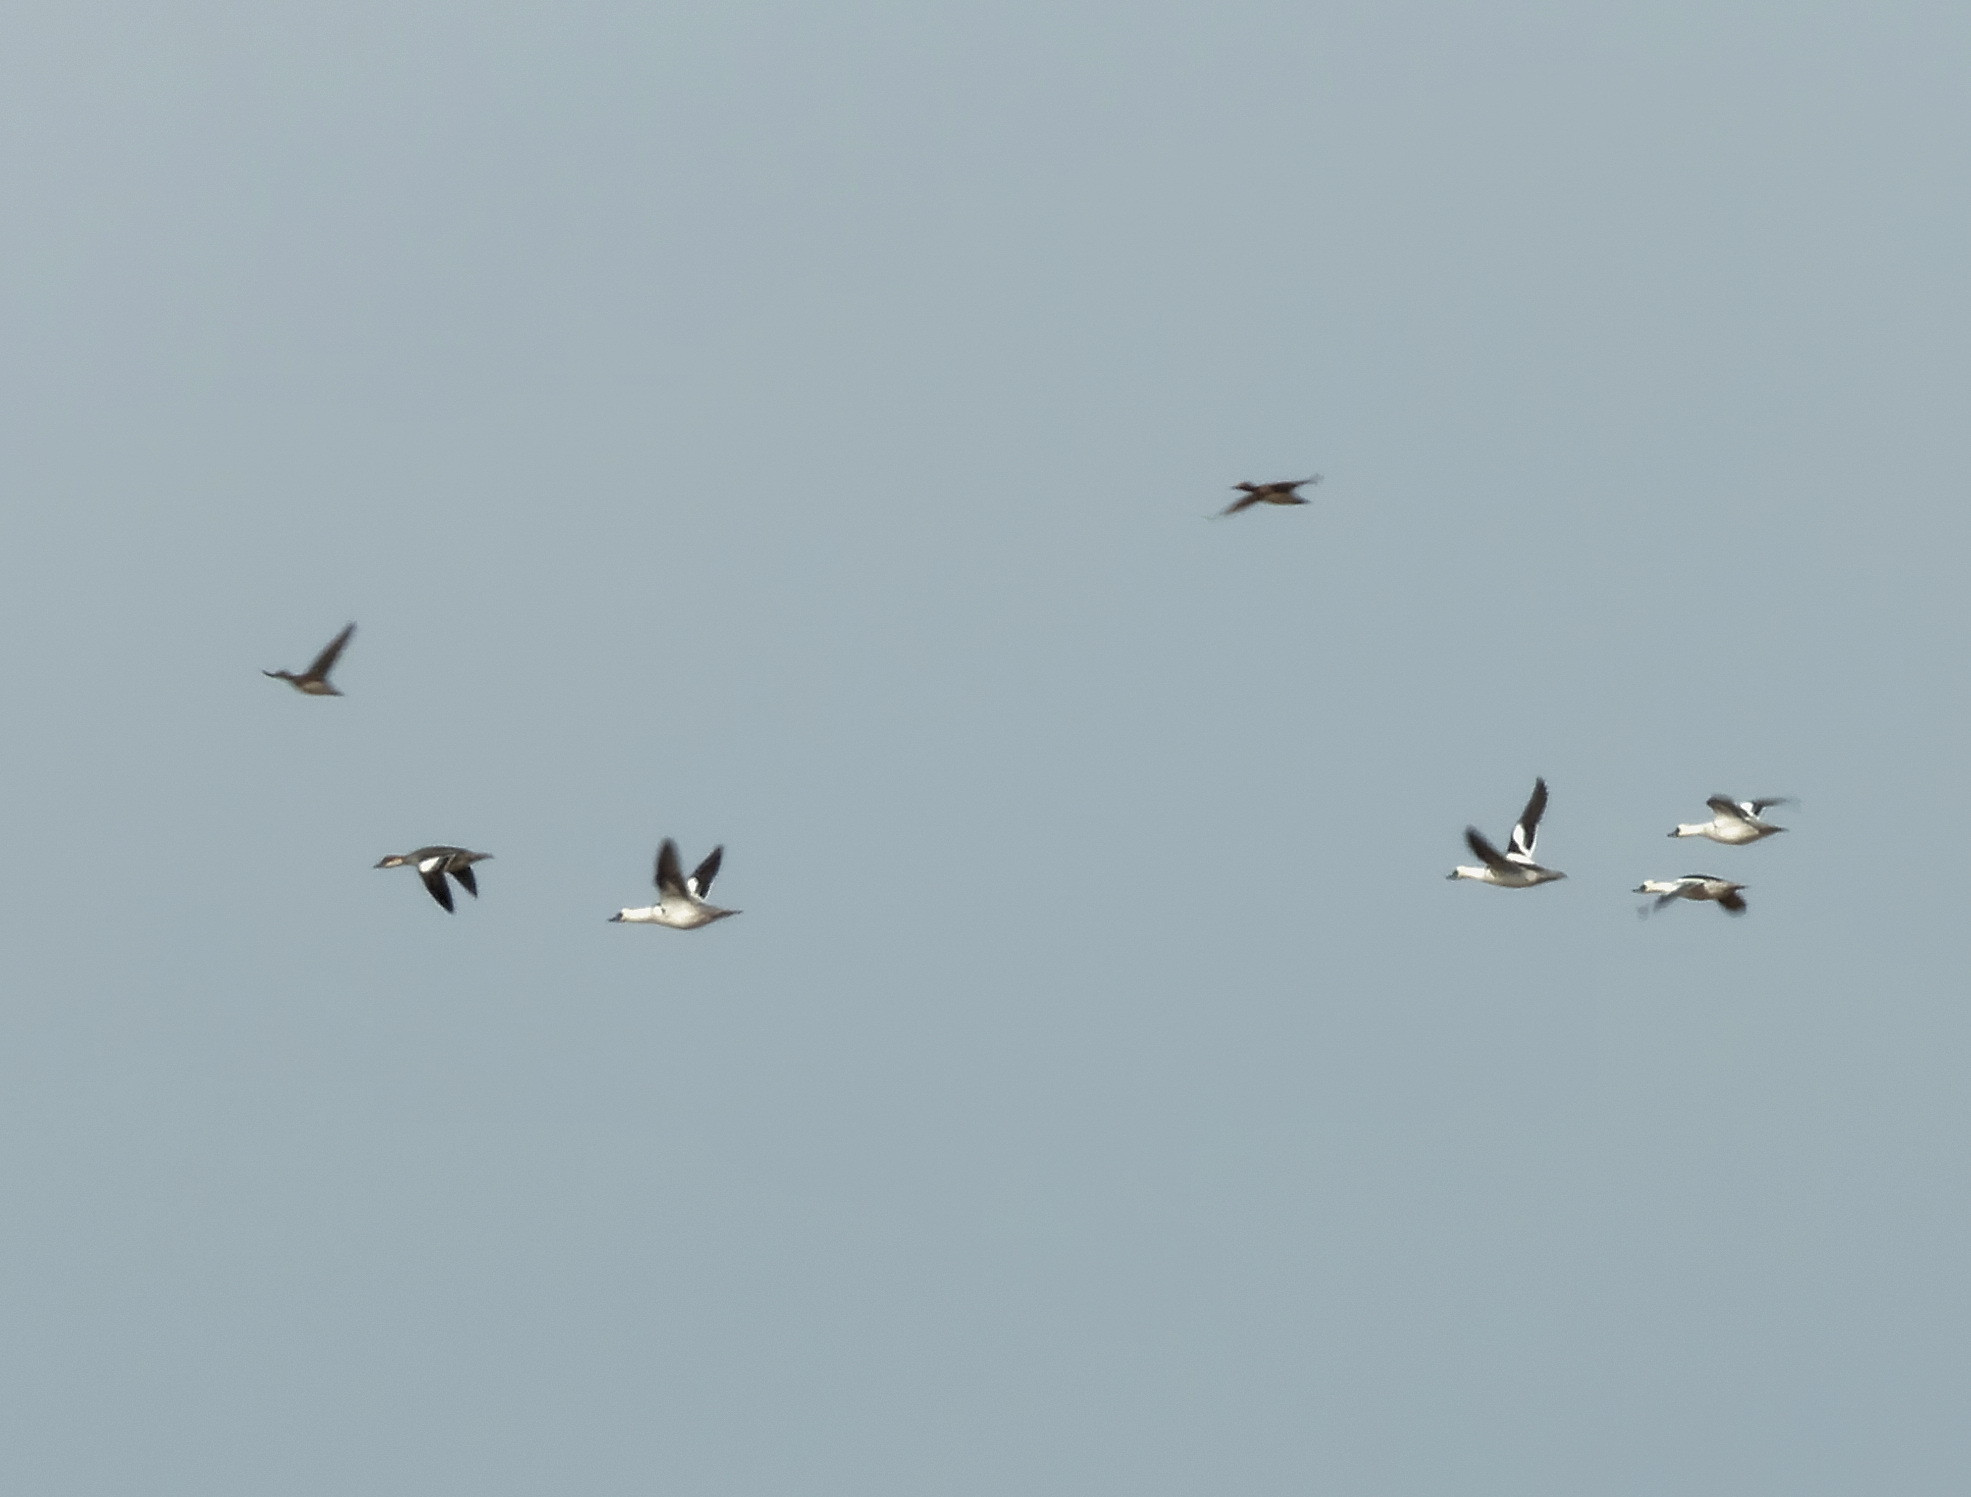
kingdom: Animalia
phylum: Chordata
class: Aves
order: Anseriformes
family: Anatidae
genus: Mergellus
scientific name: Mergellus albellus
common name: Smew
